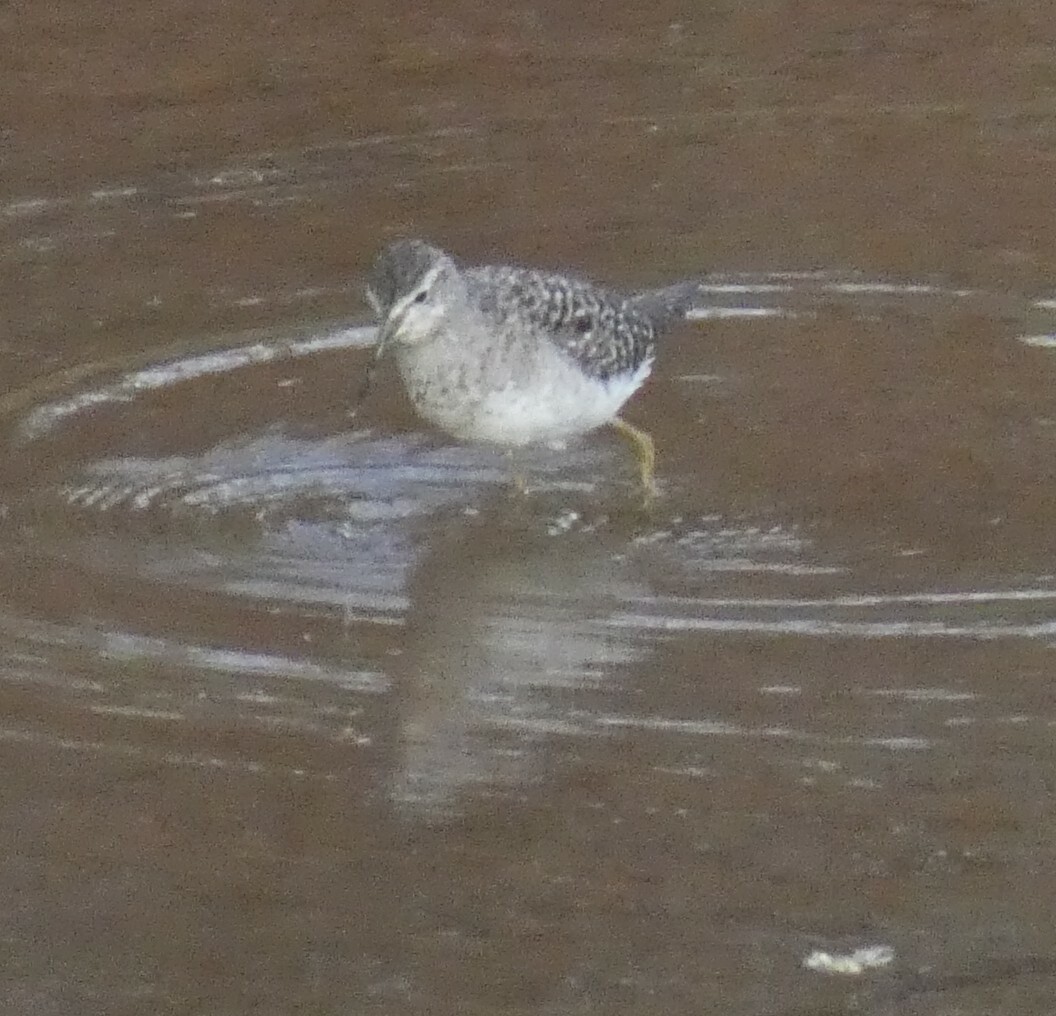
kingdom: Animalia
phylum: Chordata
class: Aves
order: Charadriiformes
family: Scolopacidae
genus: Tringa
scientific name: Tringa glareola
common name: Wood sandpiper
